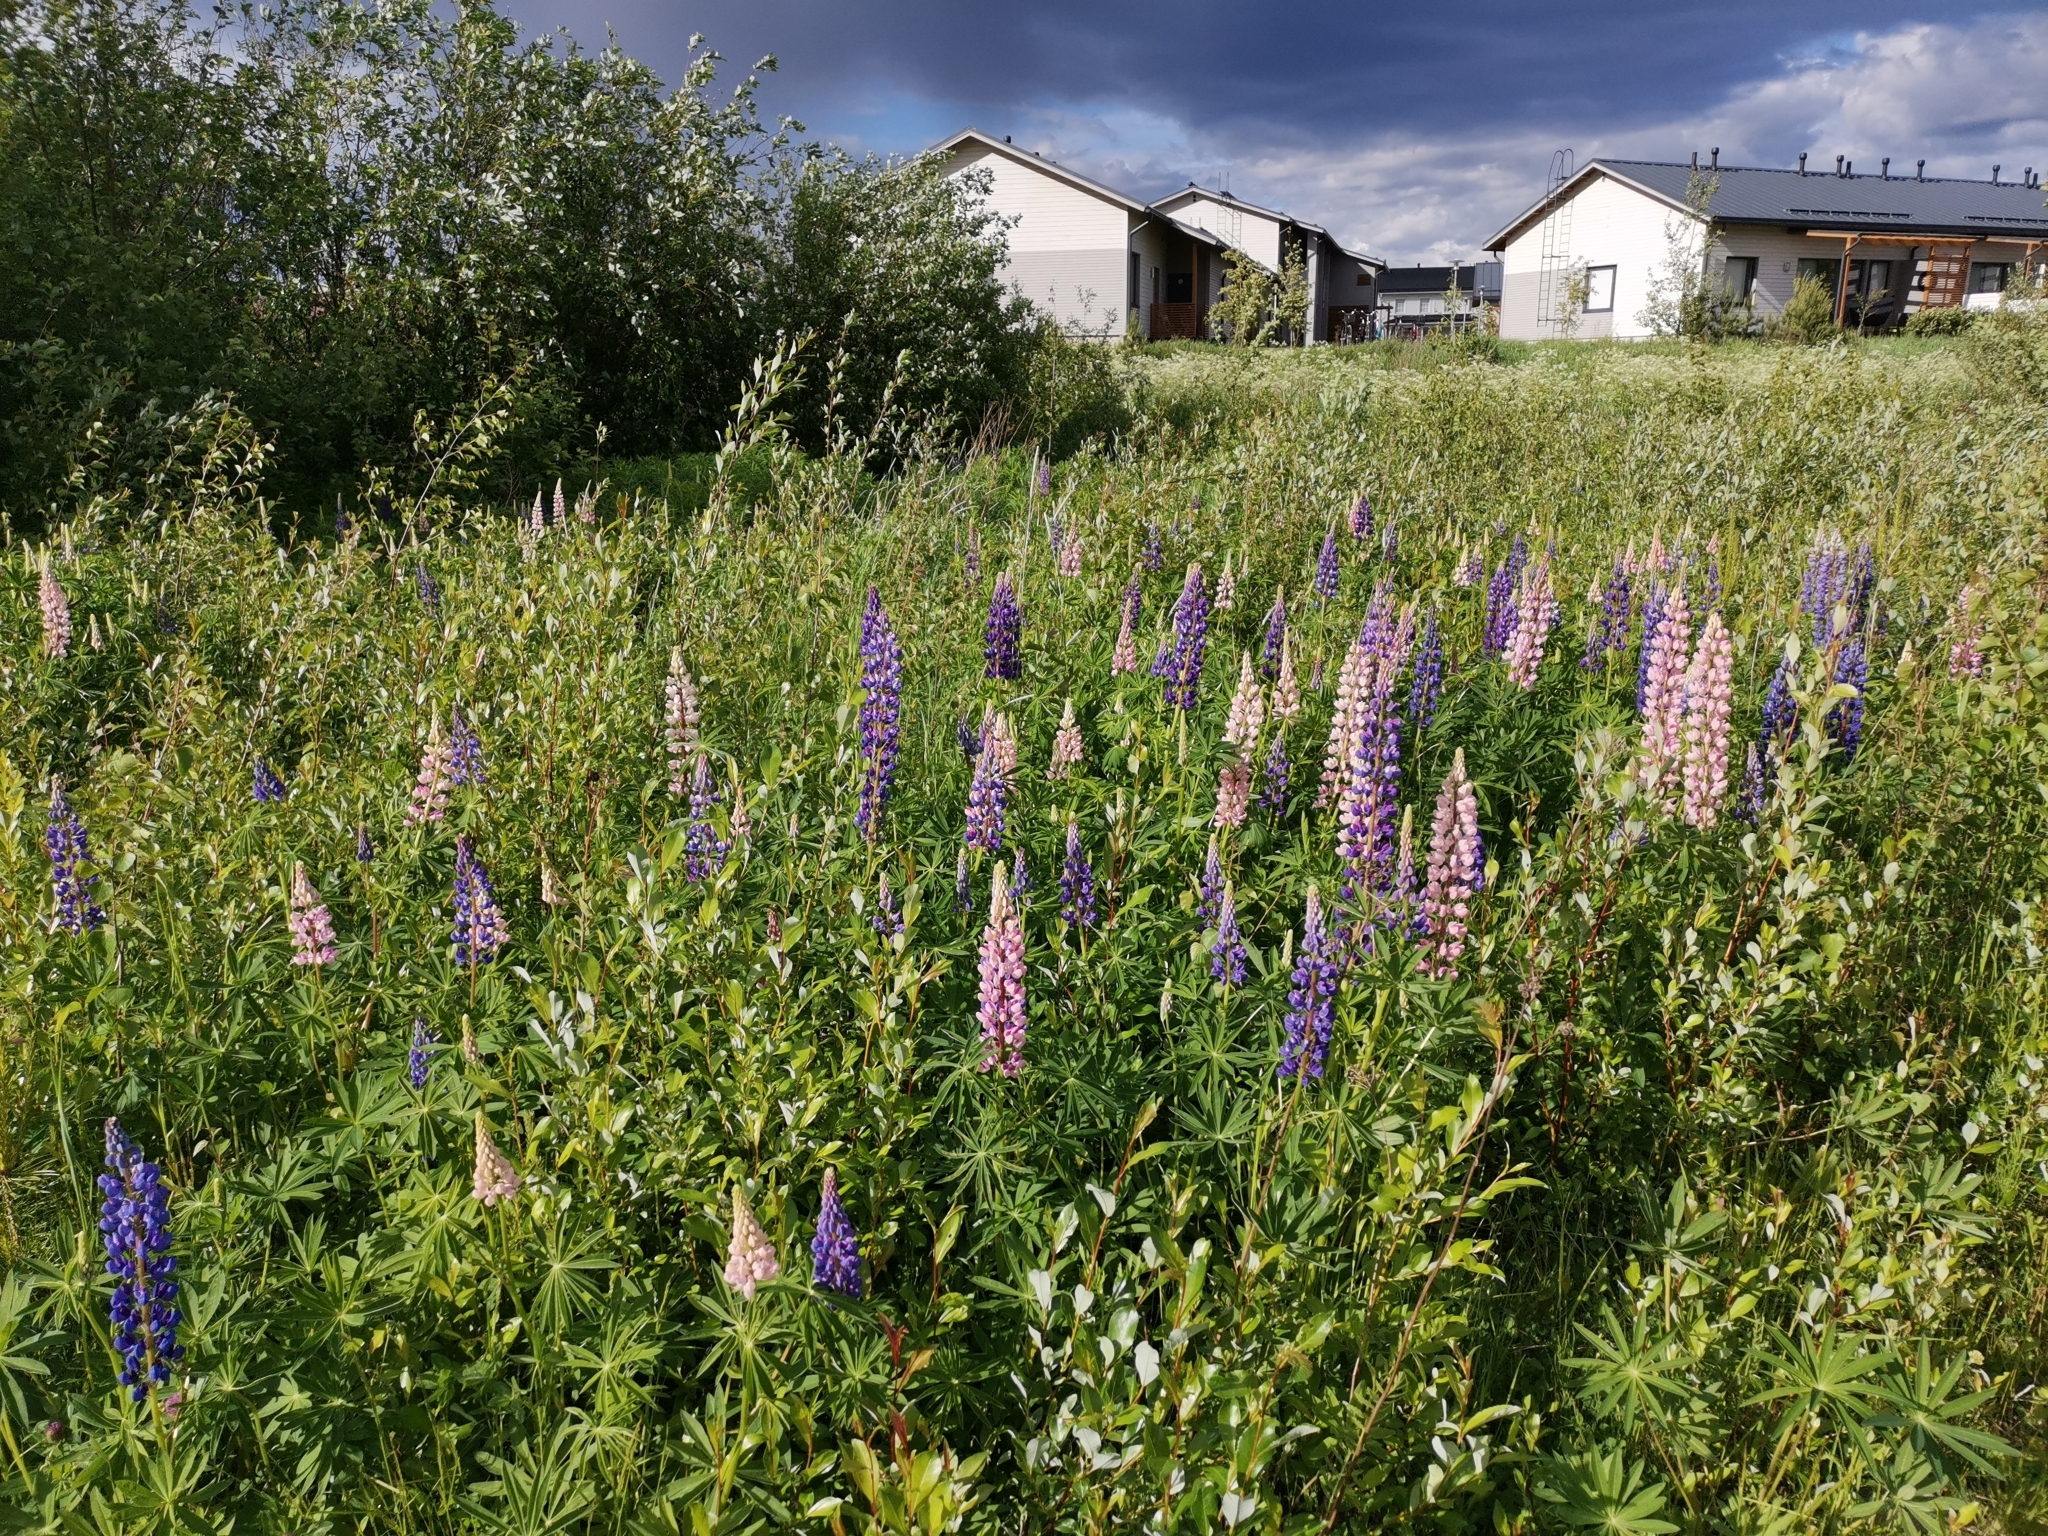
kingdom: Plantae
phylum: Tracheophyta
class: Magnoliopsida
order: Fabales
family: Fabaceae
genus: Lupinus
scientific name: Lupinus polyphyllus
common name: Garden lupin
